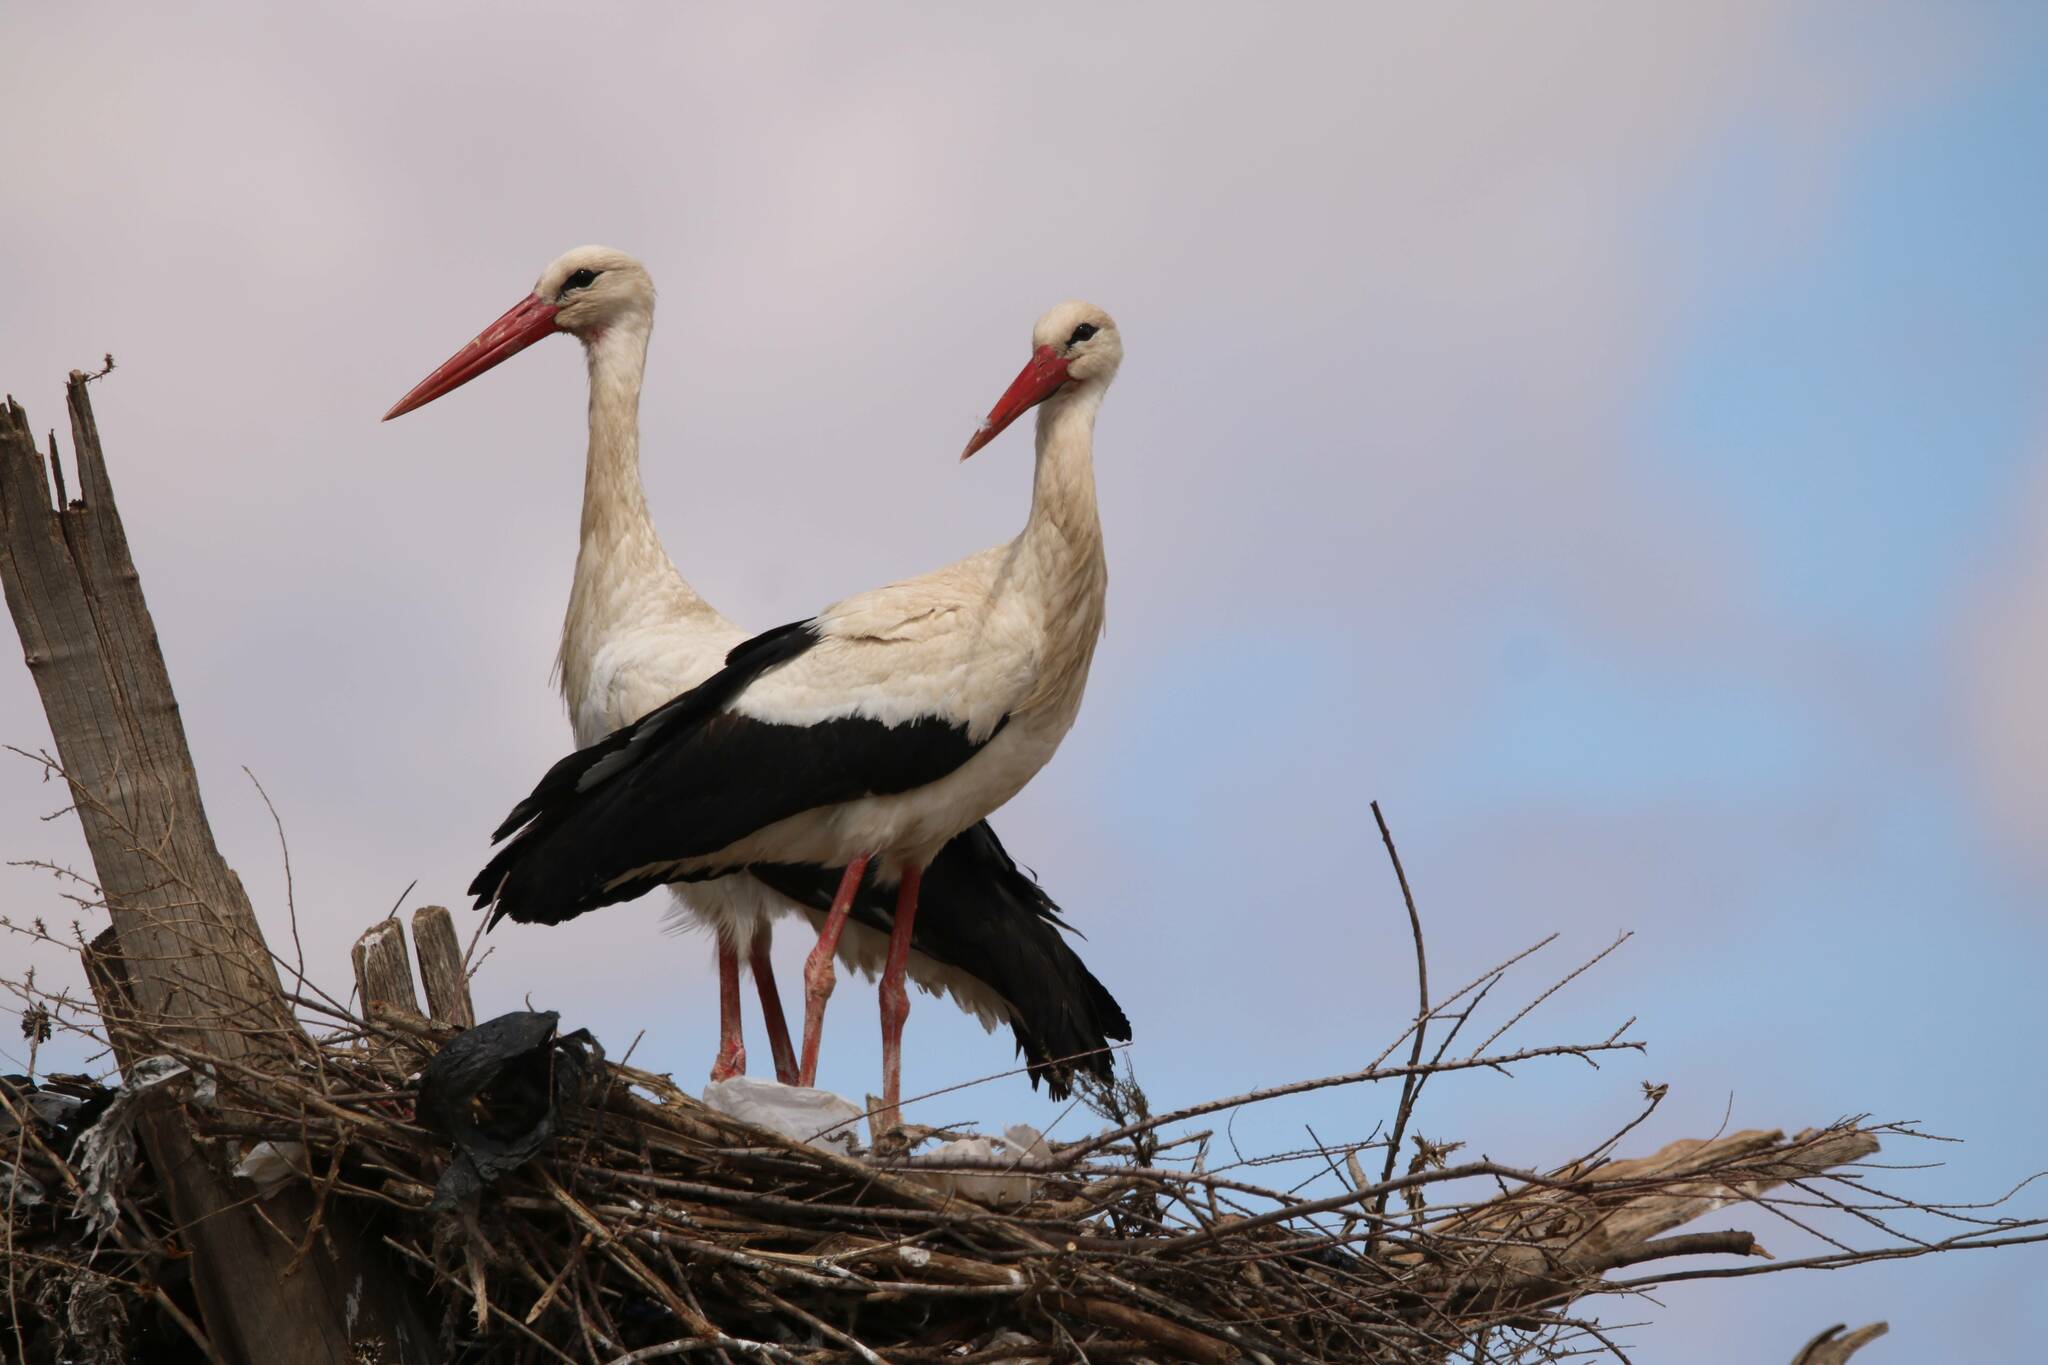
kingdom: Animalia
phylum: Chordata
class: Aves
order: Ciconiiformes
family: Ciconiidae
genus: Ciconia
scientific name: Ciconia ciconia
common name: White stork
